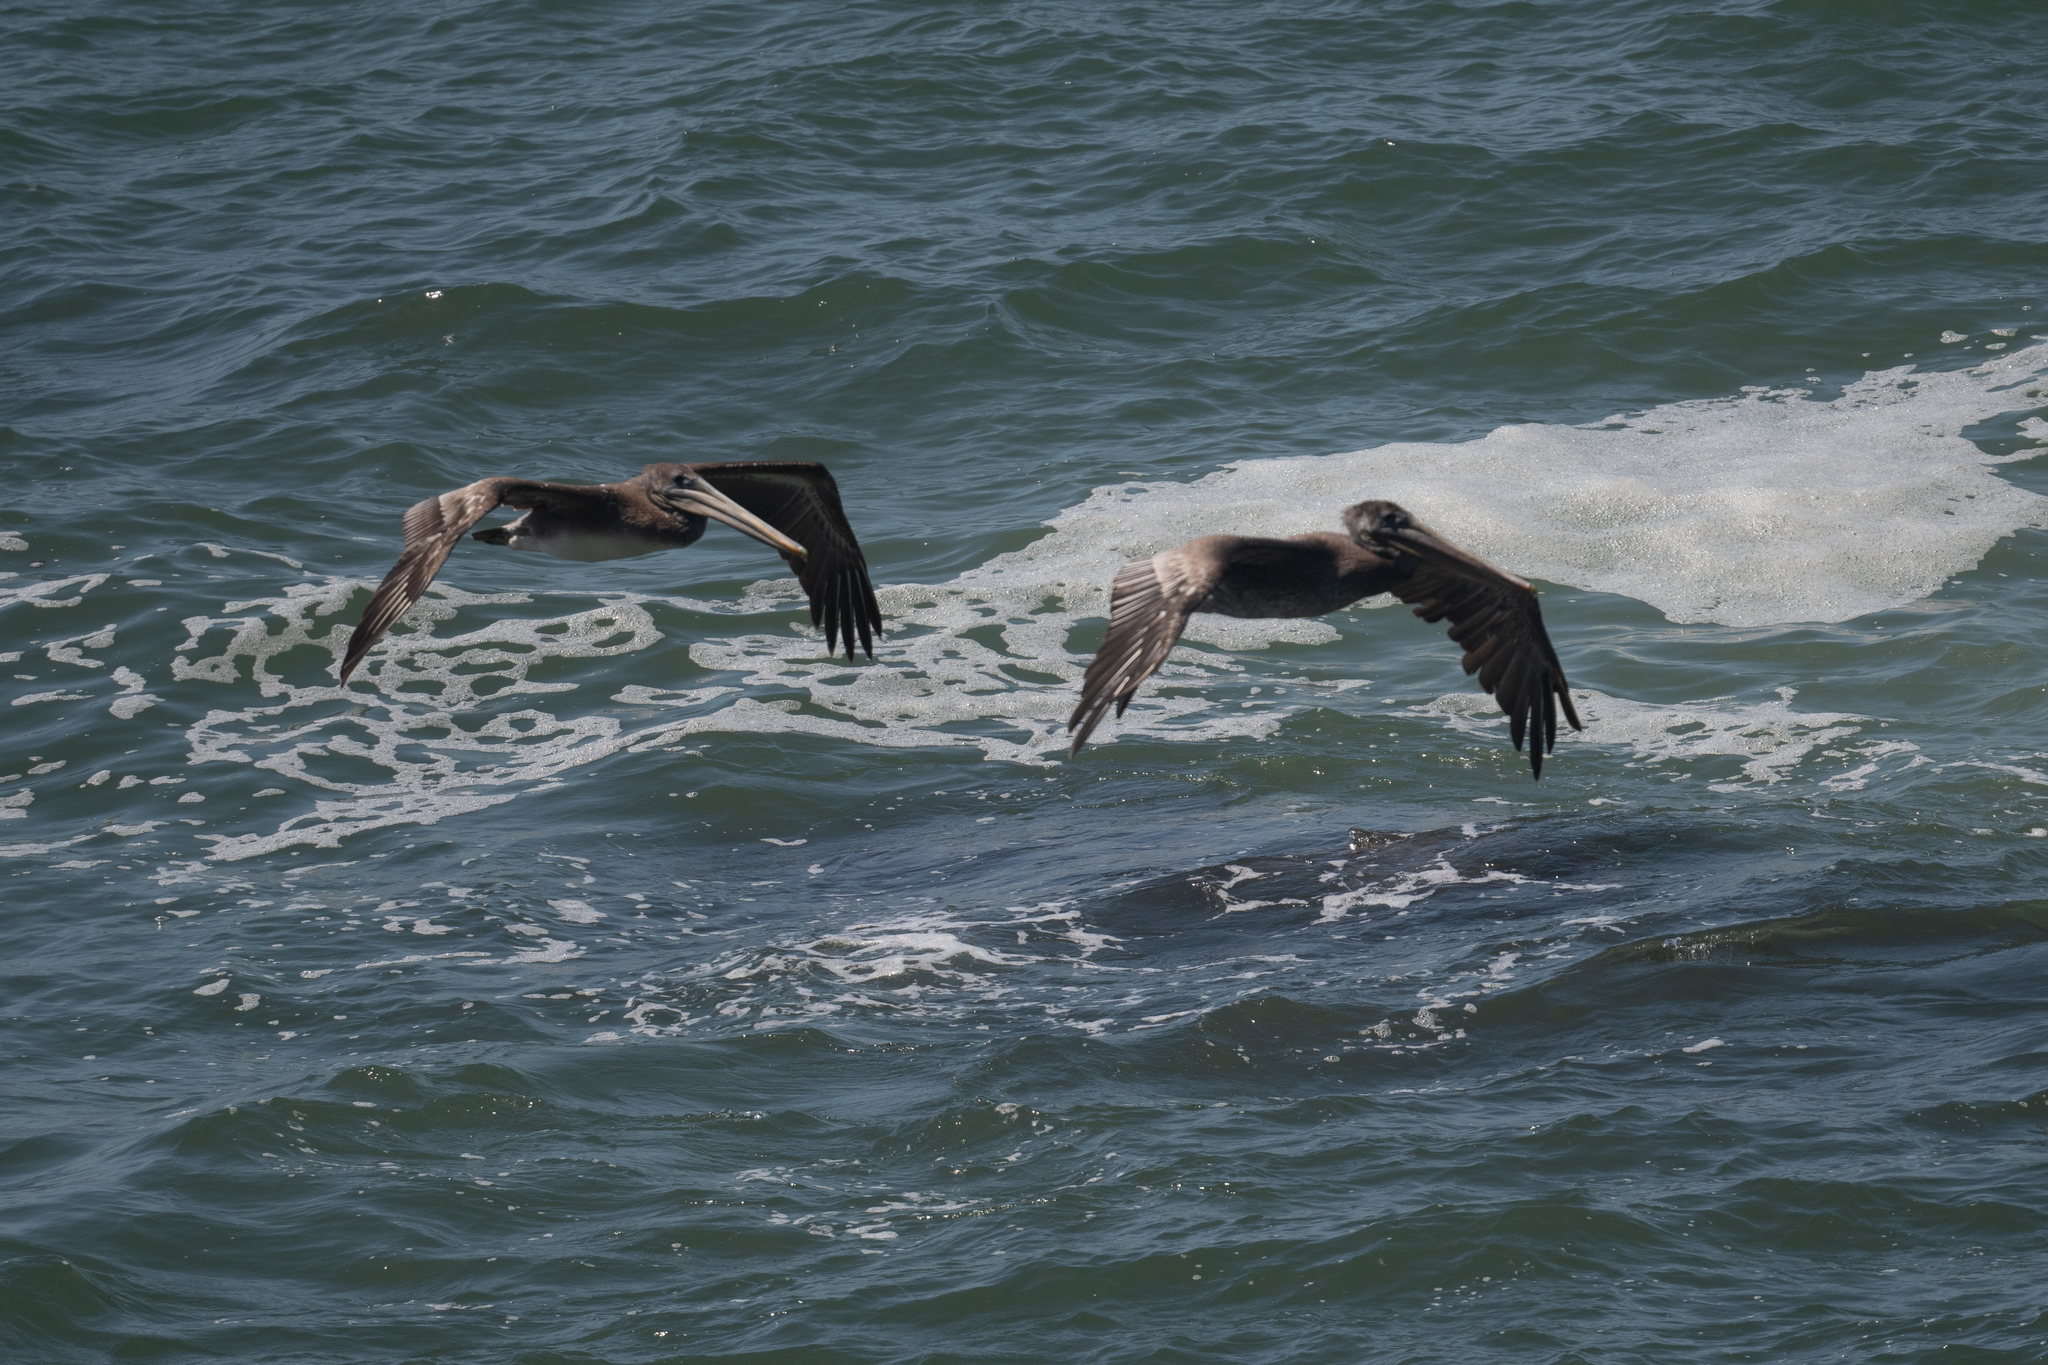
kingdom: Animalia
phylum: Chordata
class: Aves
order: Pelecaniformes
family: Pelecanidae
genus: Pelecanus
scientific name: Pelecanus occidentalis
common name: Brown pelican
